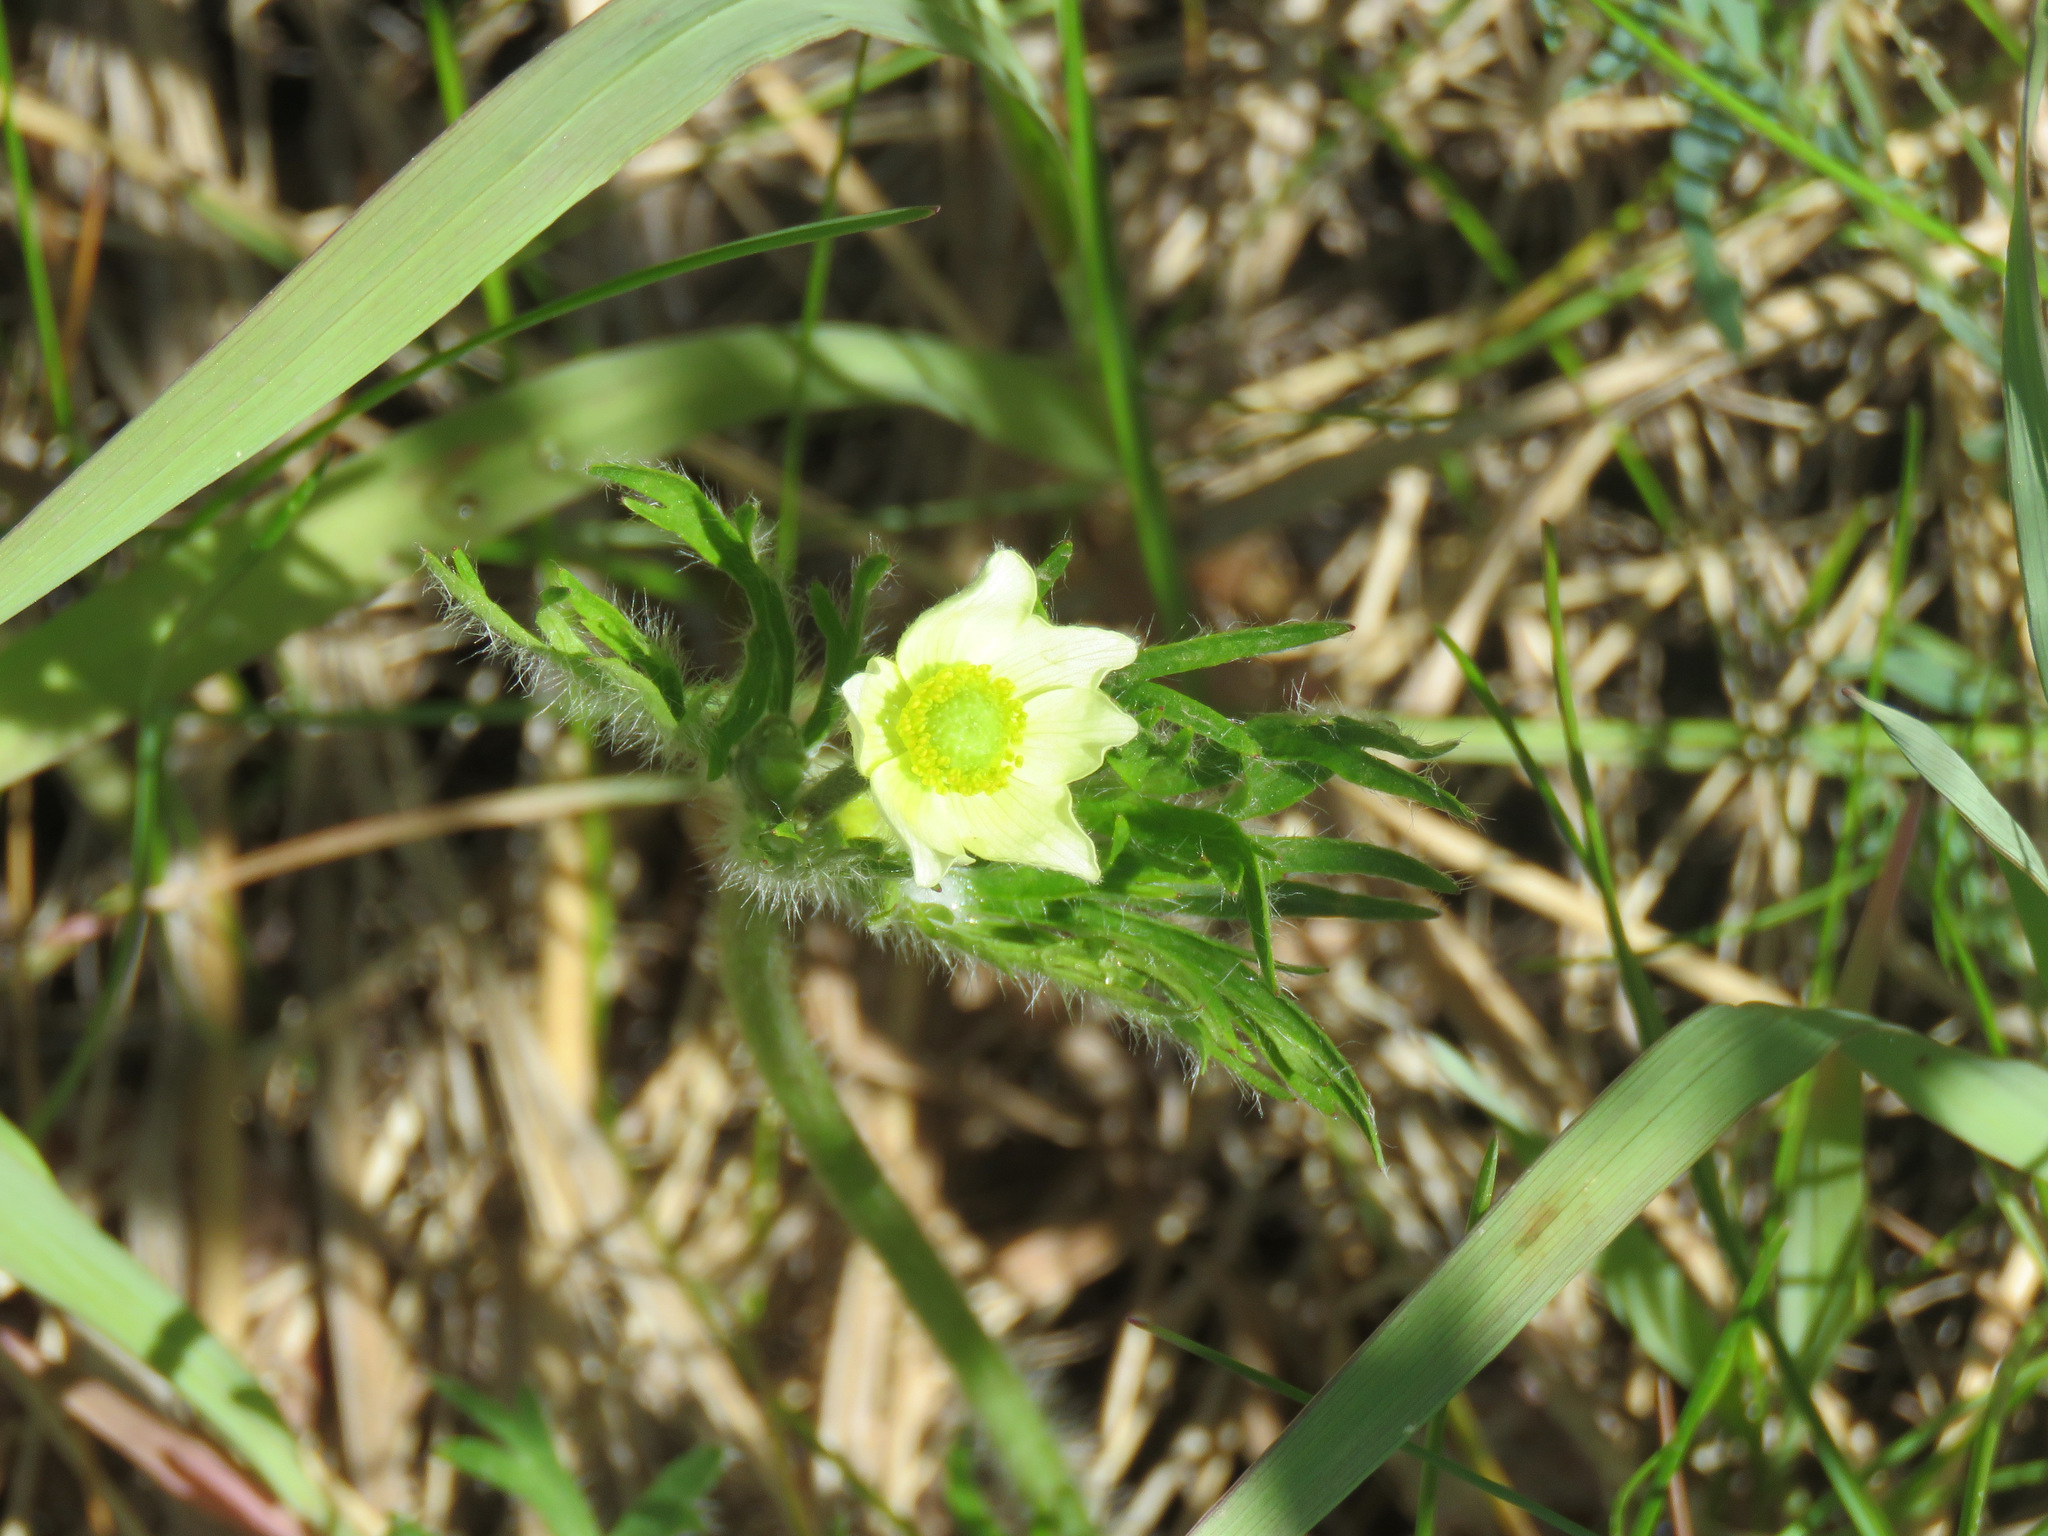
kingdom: Plantae
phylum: Tracheophyta
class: Magnoliopsida
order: Ranunculales
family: Ranunculaceae
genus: Anemone
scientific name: Anemone multifida
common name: Bird's-foot anemone
